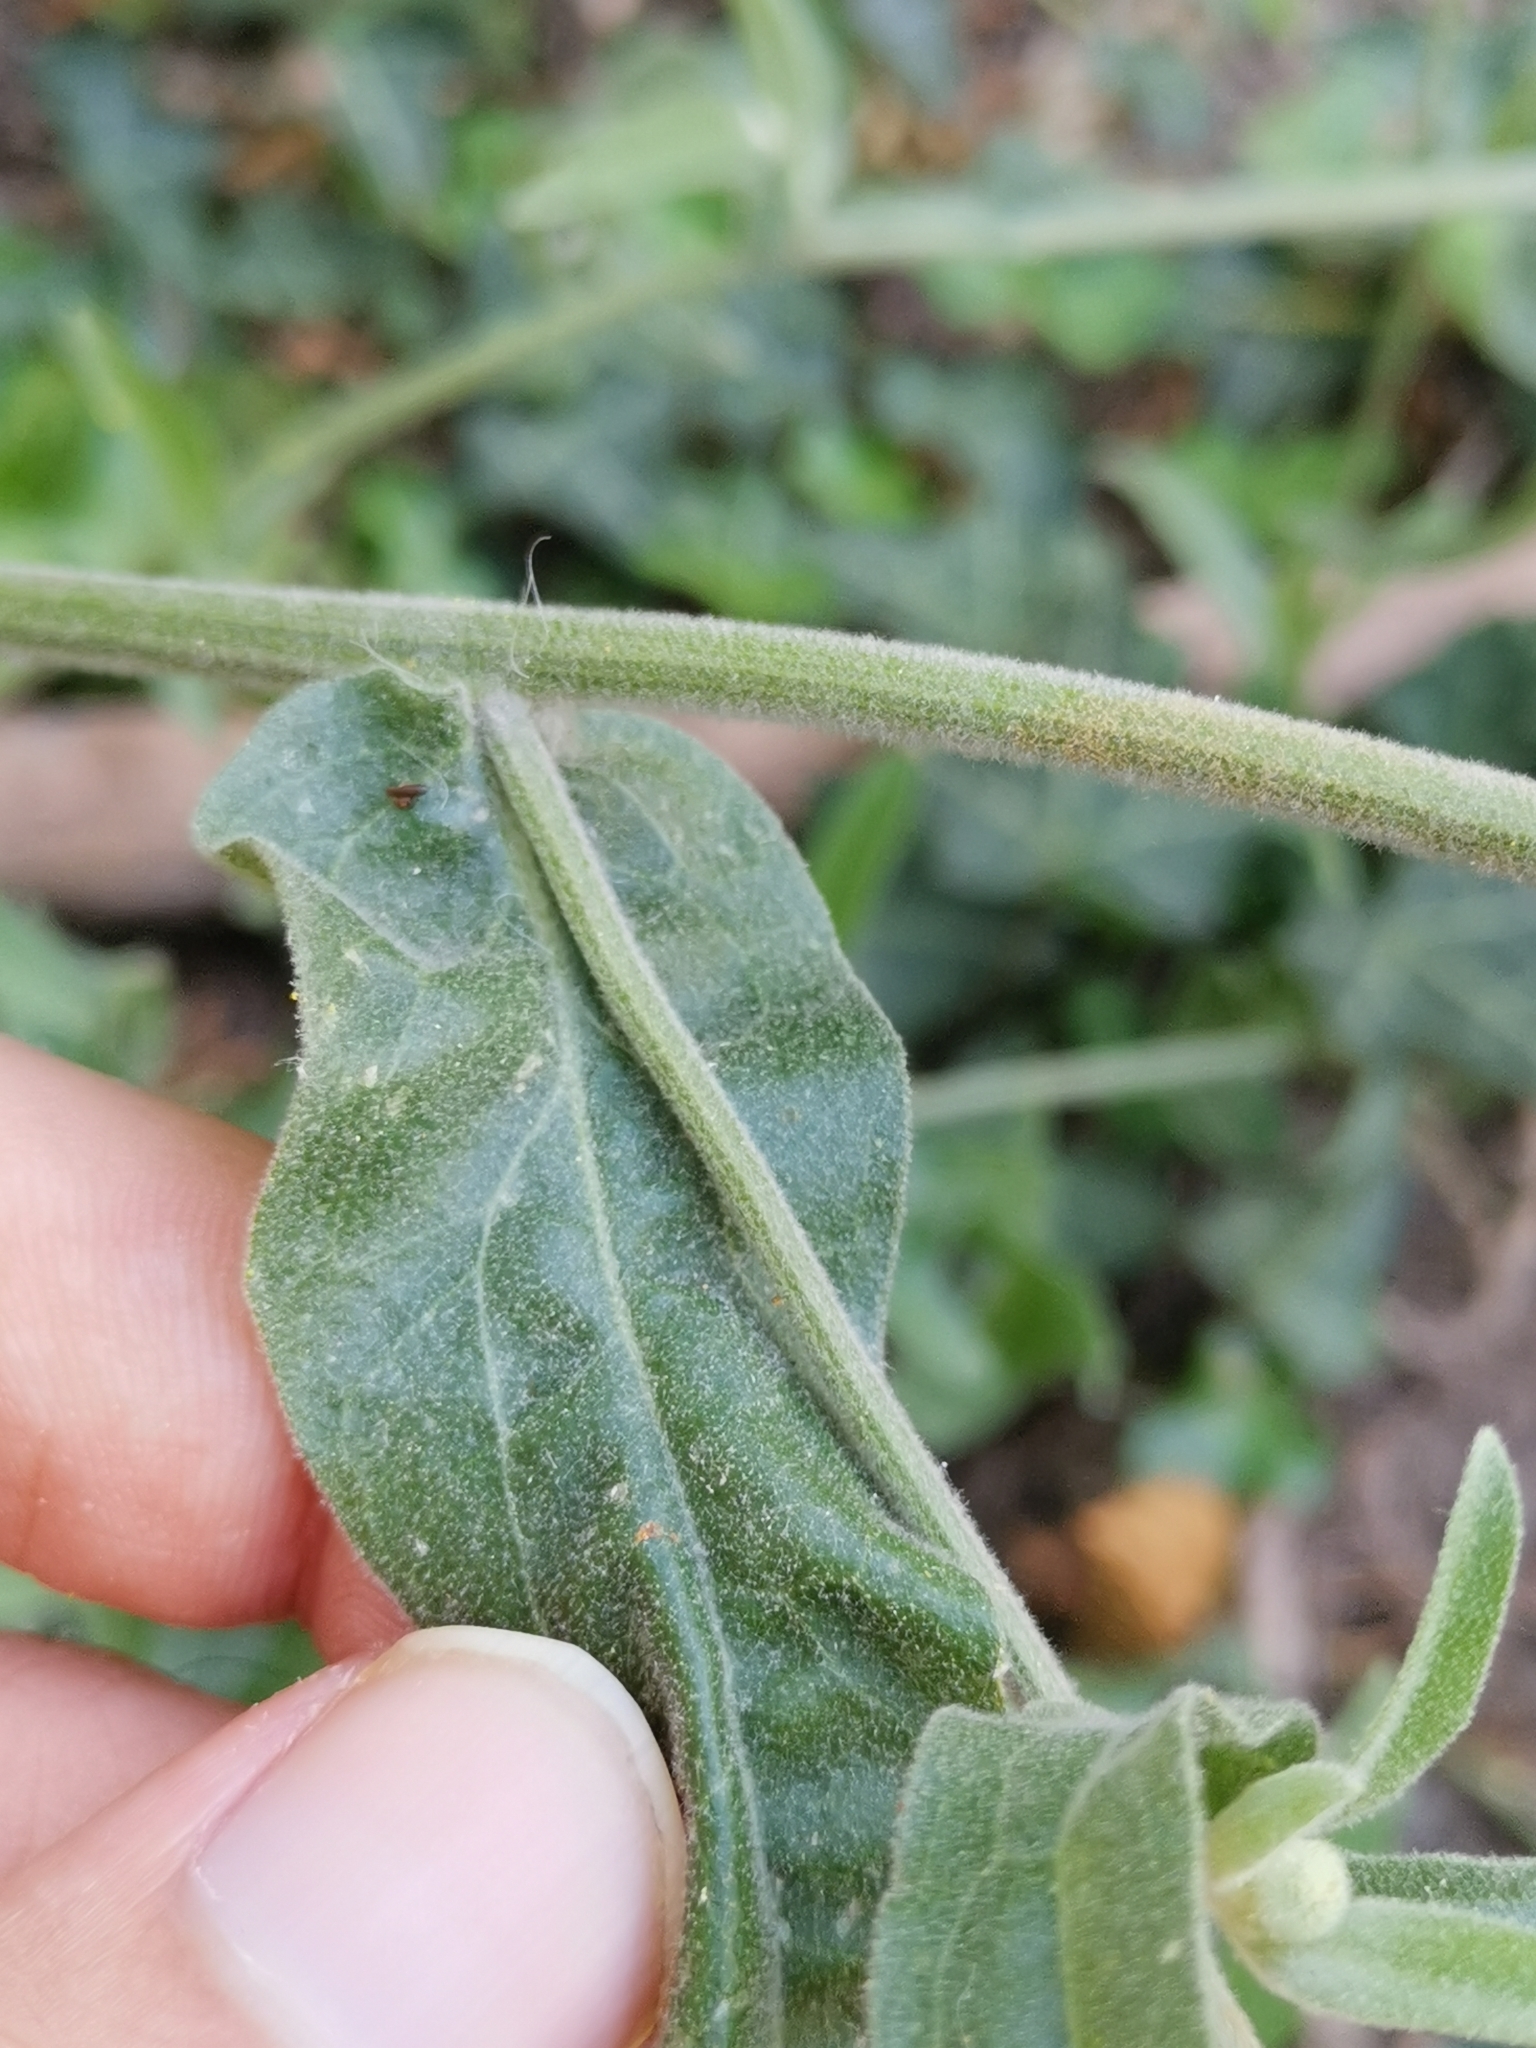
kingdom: Plantae
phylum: Tracheophyta
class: Magnoliopsida
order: Asterales
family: Asteraceae
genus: Andryala
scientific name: Andryala integrifolia
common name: Common andryala
